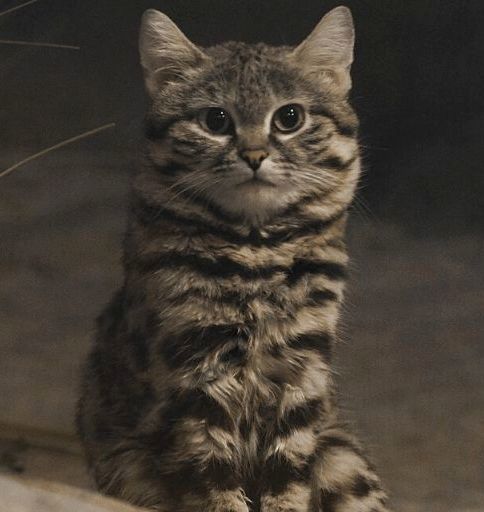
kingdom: Animalia
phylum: Chordata
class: Mammalia
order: Carnivora
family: Felidae
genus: Felis
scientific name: Felis nigripes
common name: Black-footed cat
